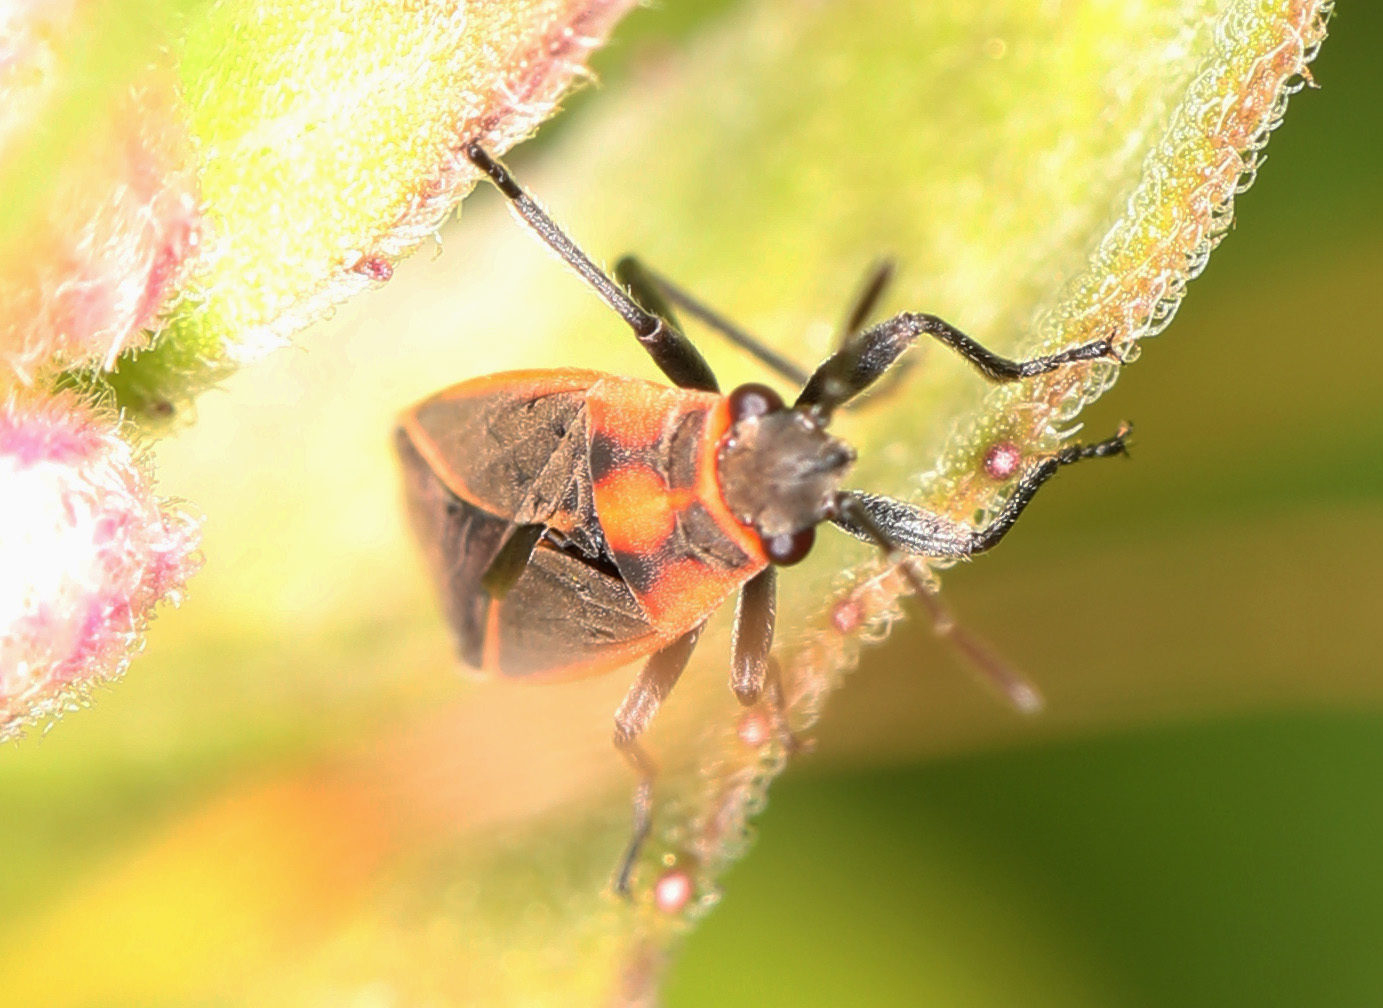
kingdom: Animalia
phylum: Arthropoda
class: Insecta
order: Hemiptera
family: Lygaeidae
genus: Ochrimnus
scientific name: Ochrimnus lineoloides
